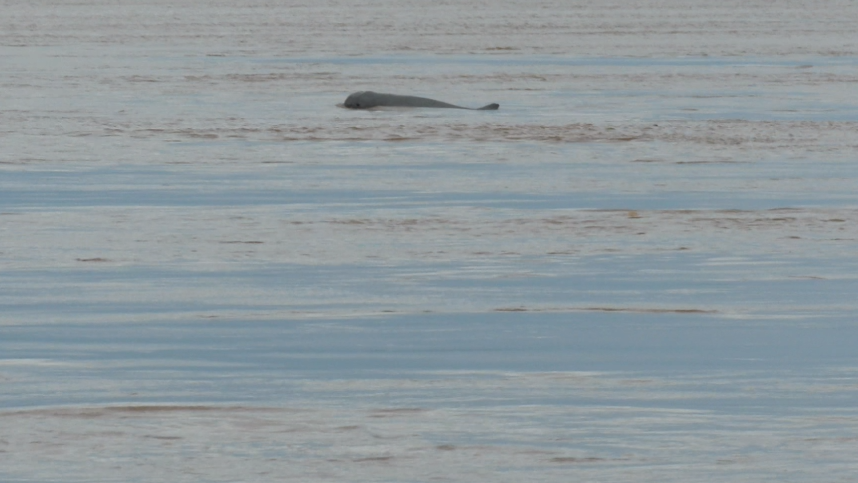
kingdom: Animalia
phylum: Chordata
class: Mammalia
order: Cetacea
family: Delphinidae
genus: Orcaella
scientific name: Orcaella brevirostris
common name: Irrawaddy dolphin
